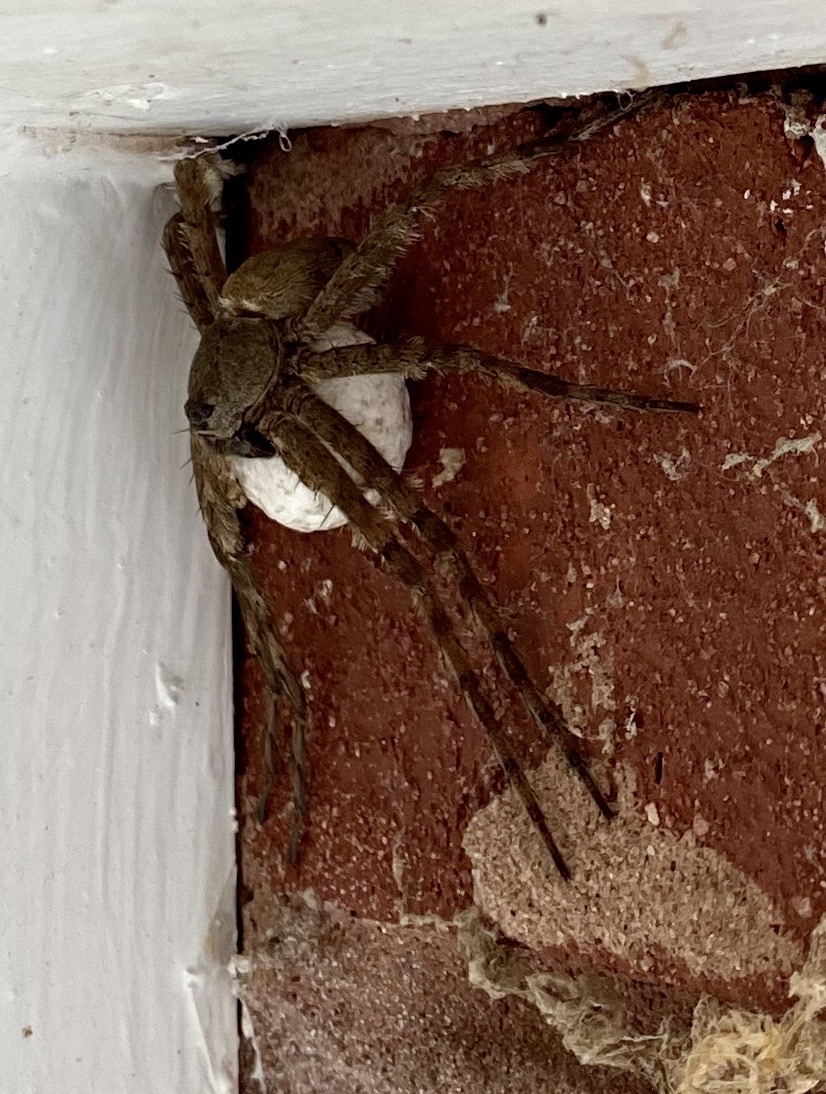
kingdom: Animalia
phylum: Arthropoda
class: Arachnida
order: Araneae
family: Pisauridae
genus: Dolomedes
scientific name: Dolomedes albineus
